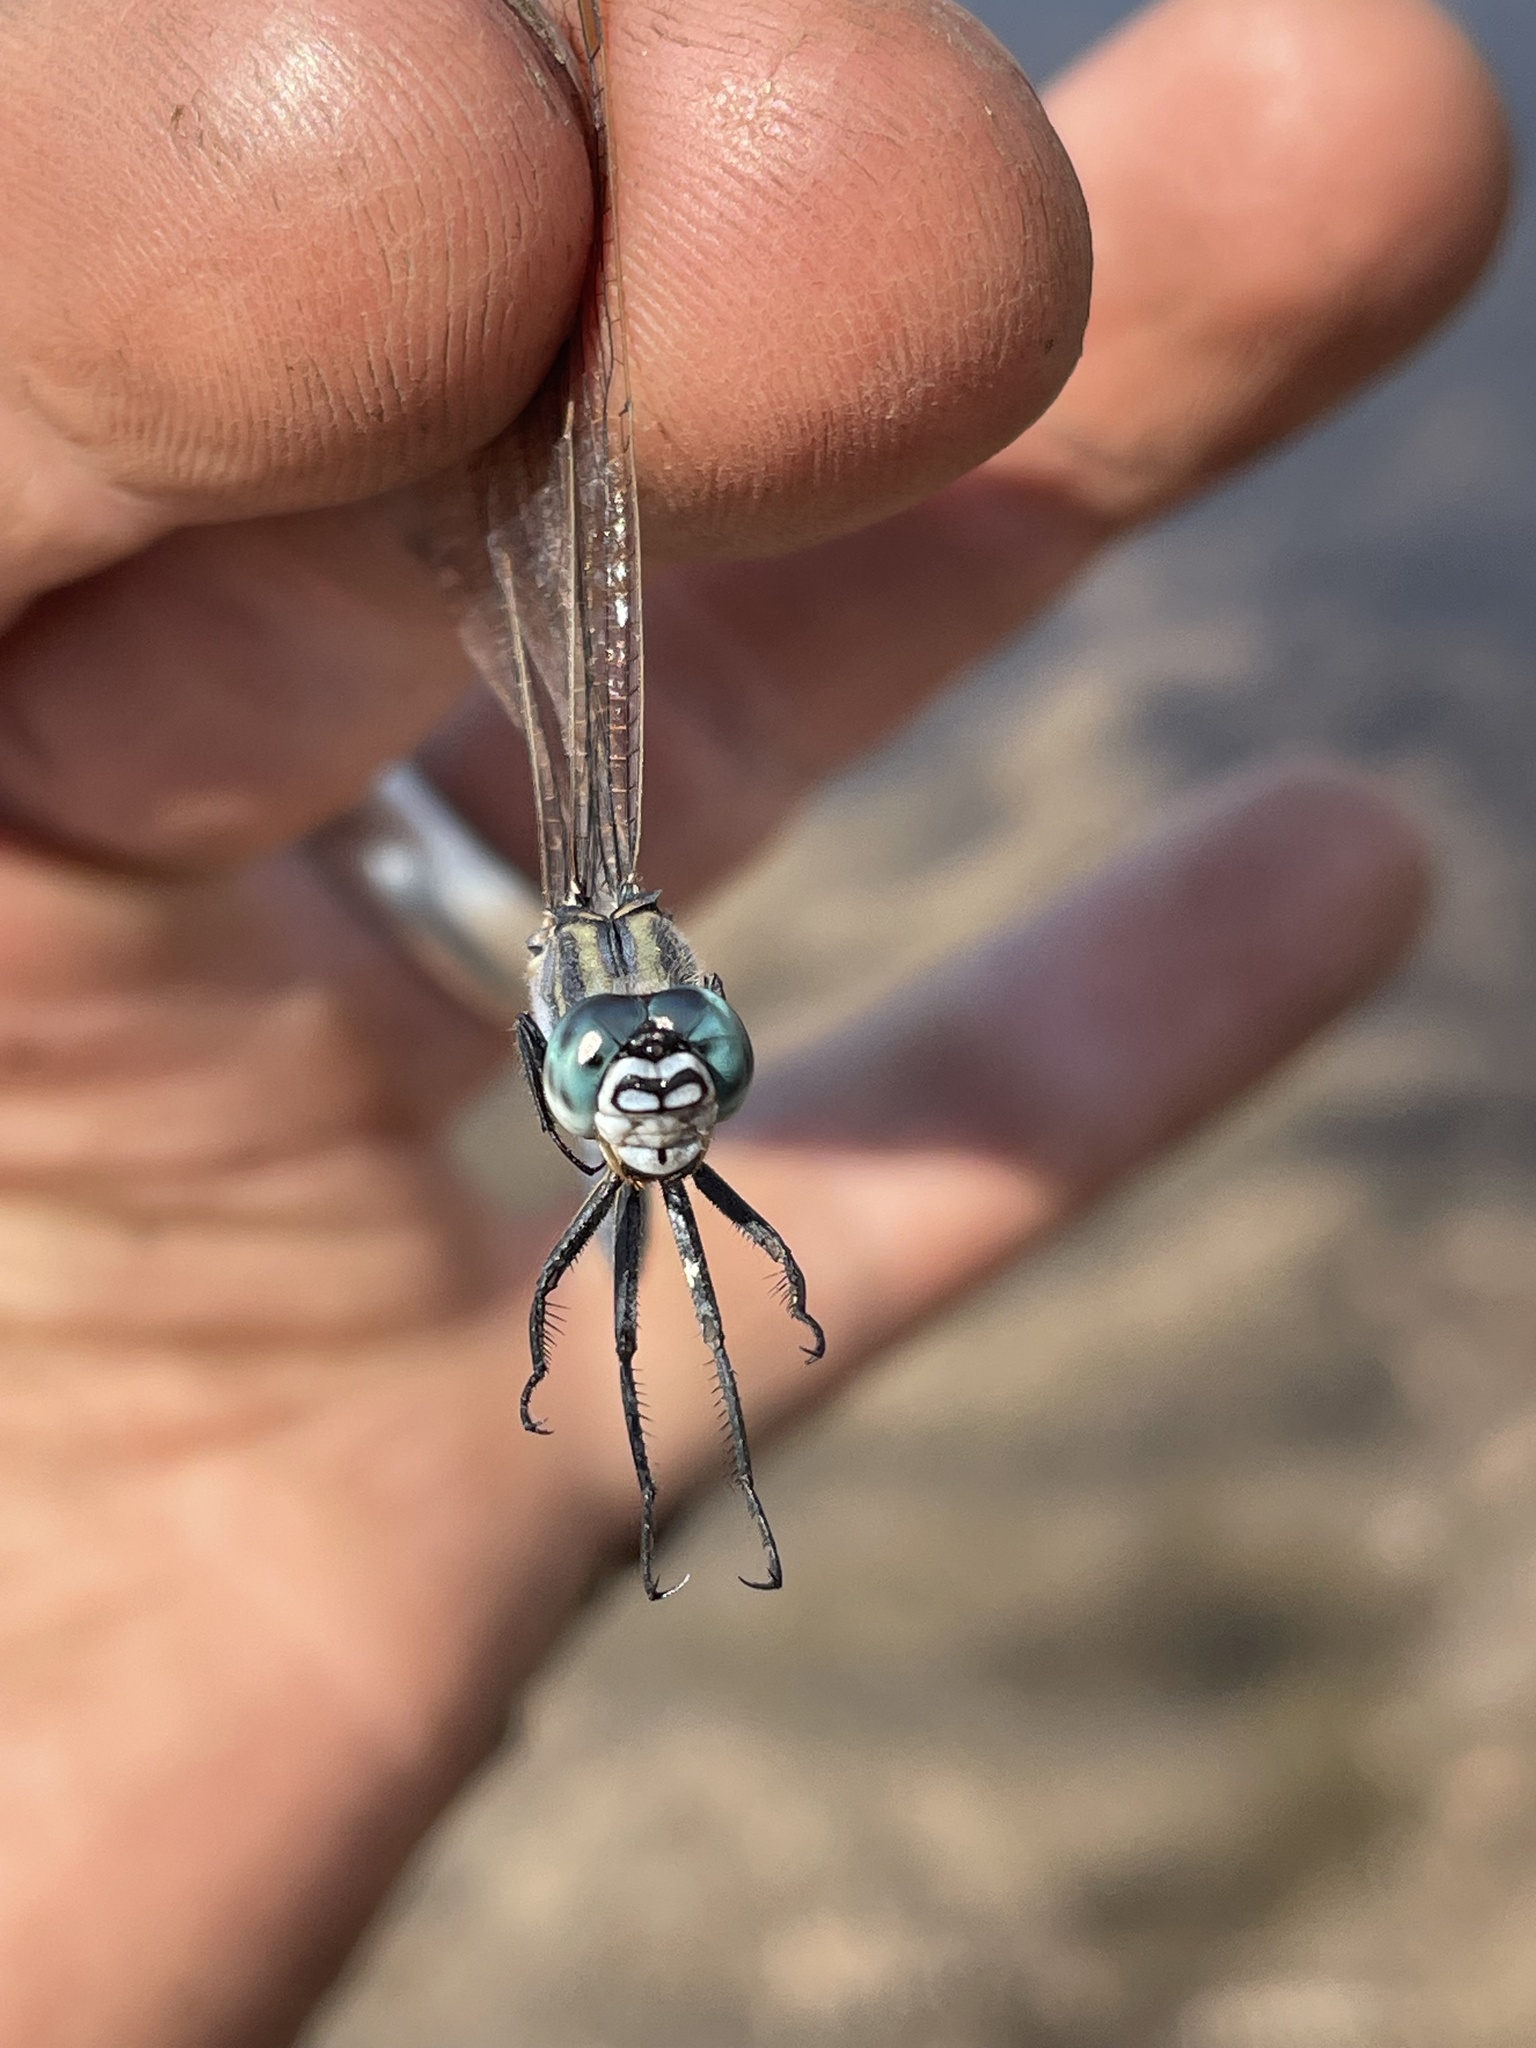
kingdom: Animalia
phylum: Arthropoda
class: Insecta
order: Odonata
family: Libellulidae
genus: Orthetrum
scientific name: Orthetrum icteromelas
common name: Spectacled skimmer
